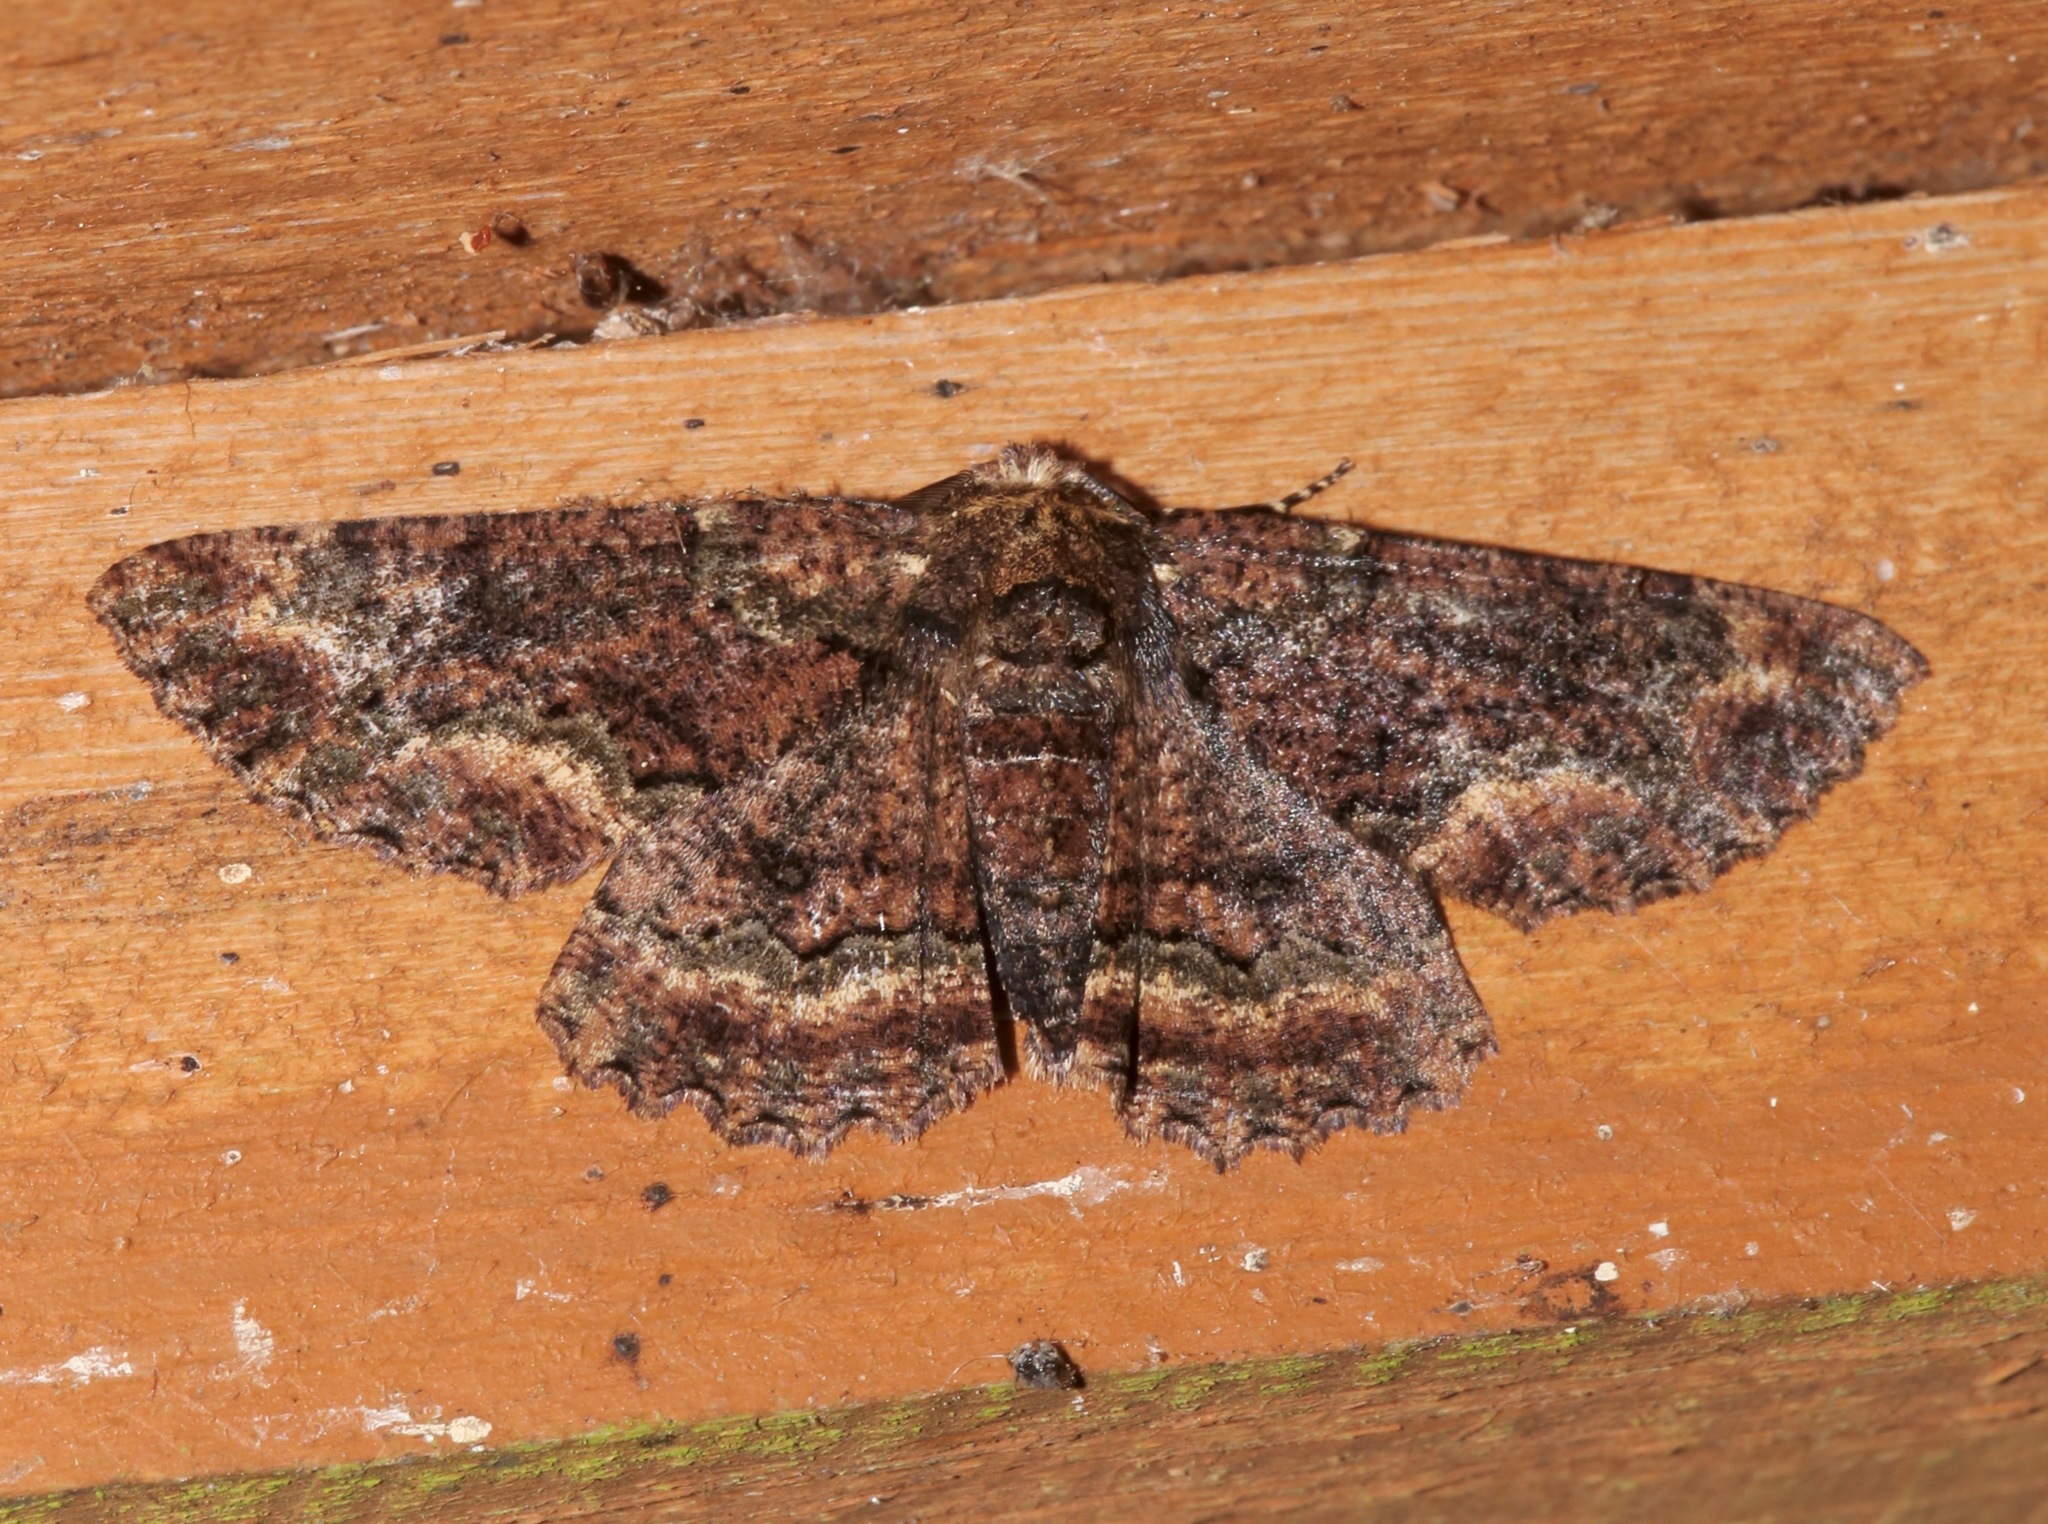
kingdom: Animalia
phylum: Arthropoda
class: Insecta
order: Lepidoptera
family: Geometridae
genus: Phaeoura
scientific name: Phaeoura quernaria
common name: Oak beauty
